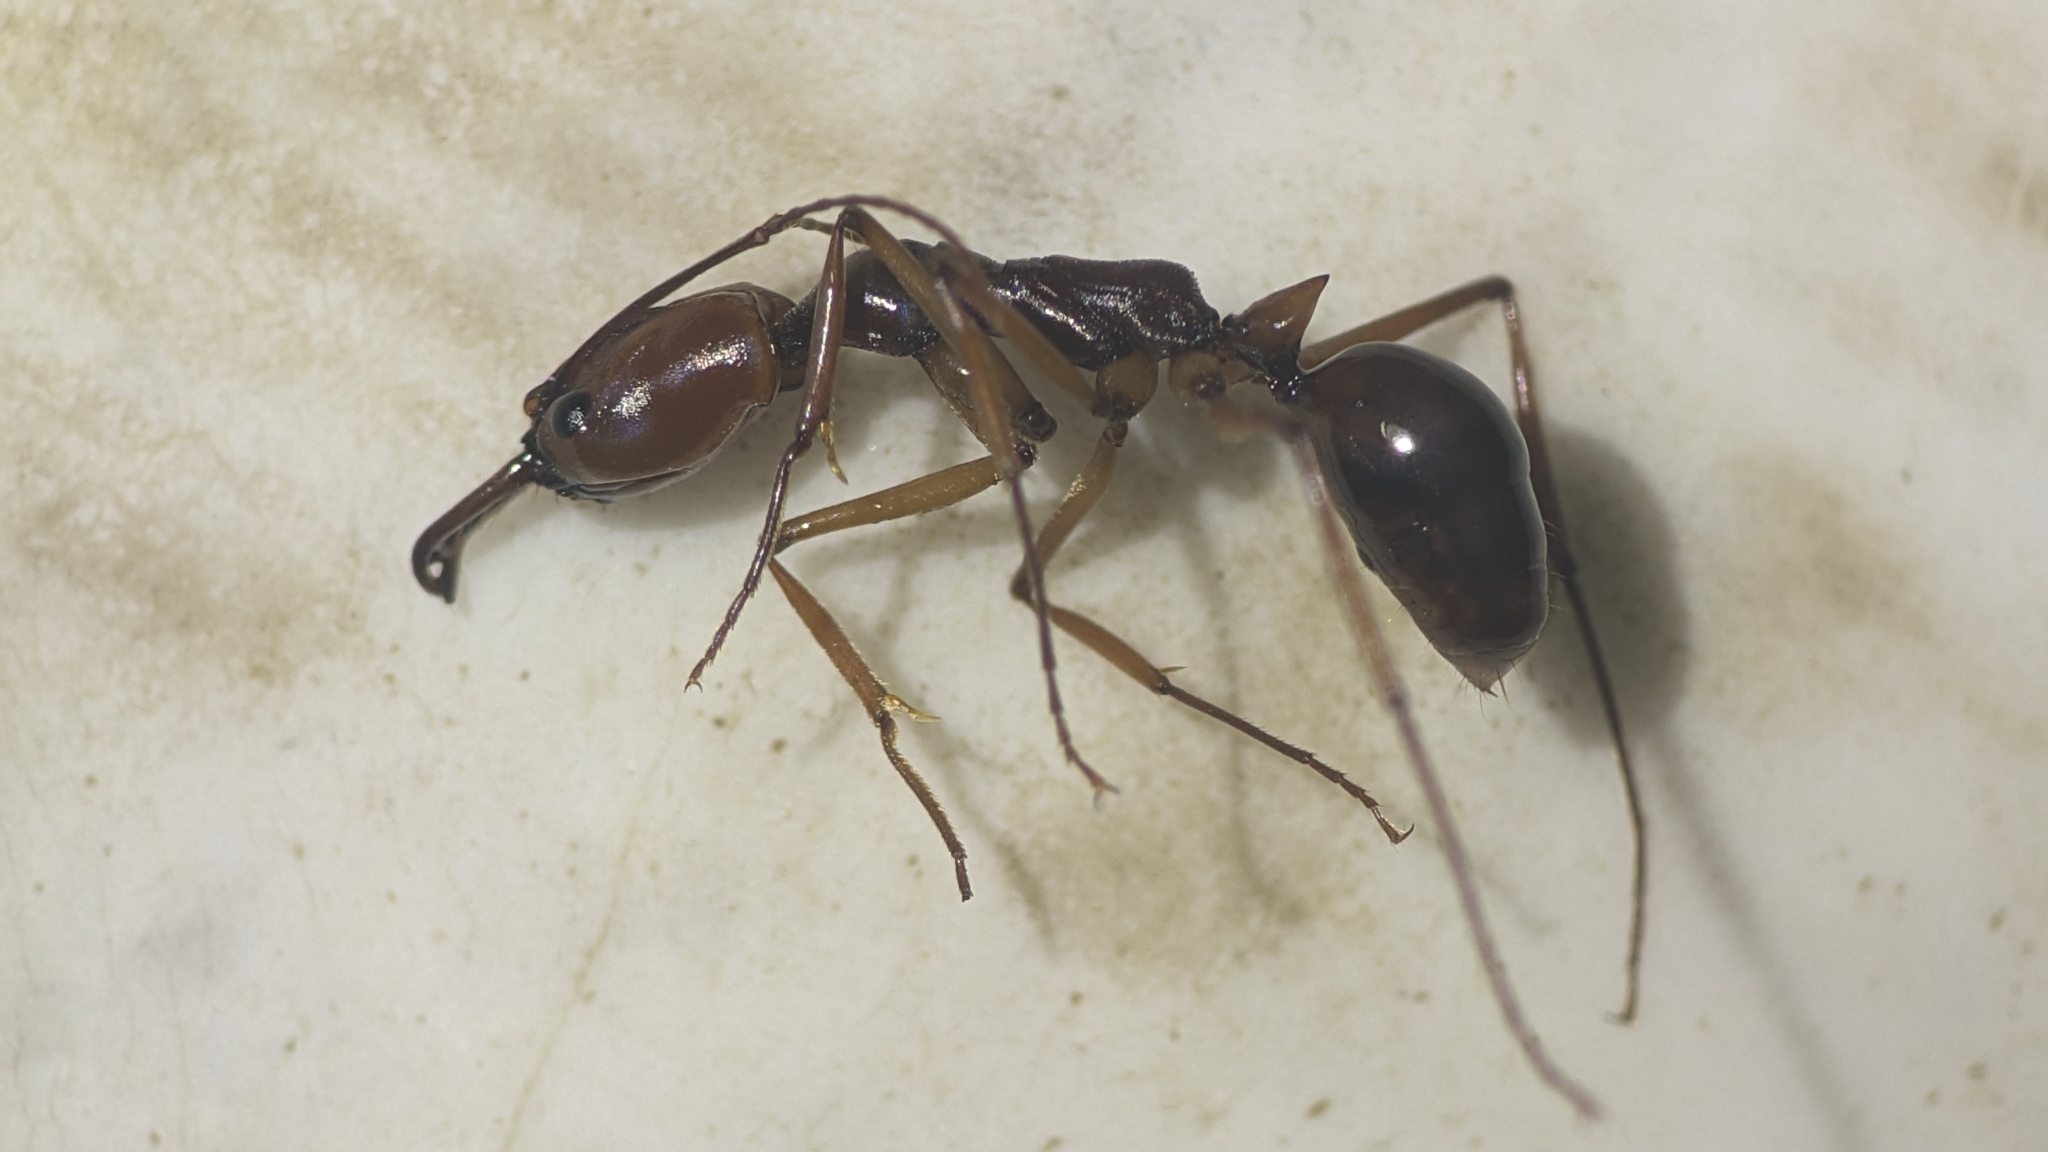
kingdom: Animalia
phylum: Arthropoda
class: Insecta
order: Hymenoptera
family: Formicidae
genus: Odontomachus
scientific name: Odontomachus malignus
